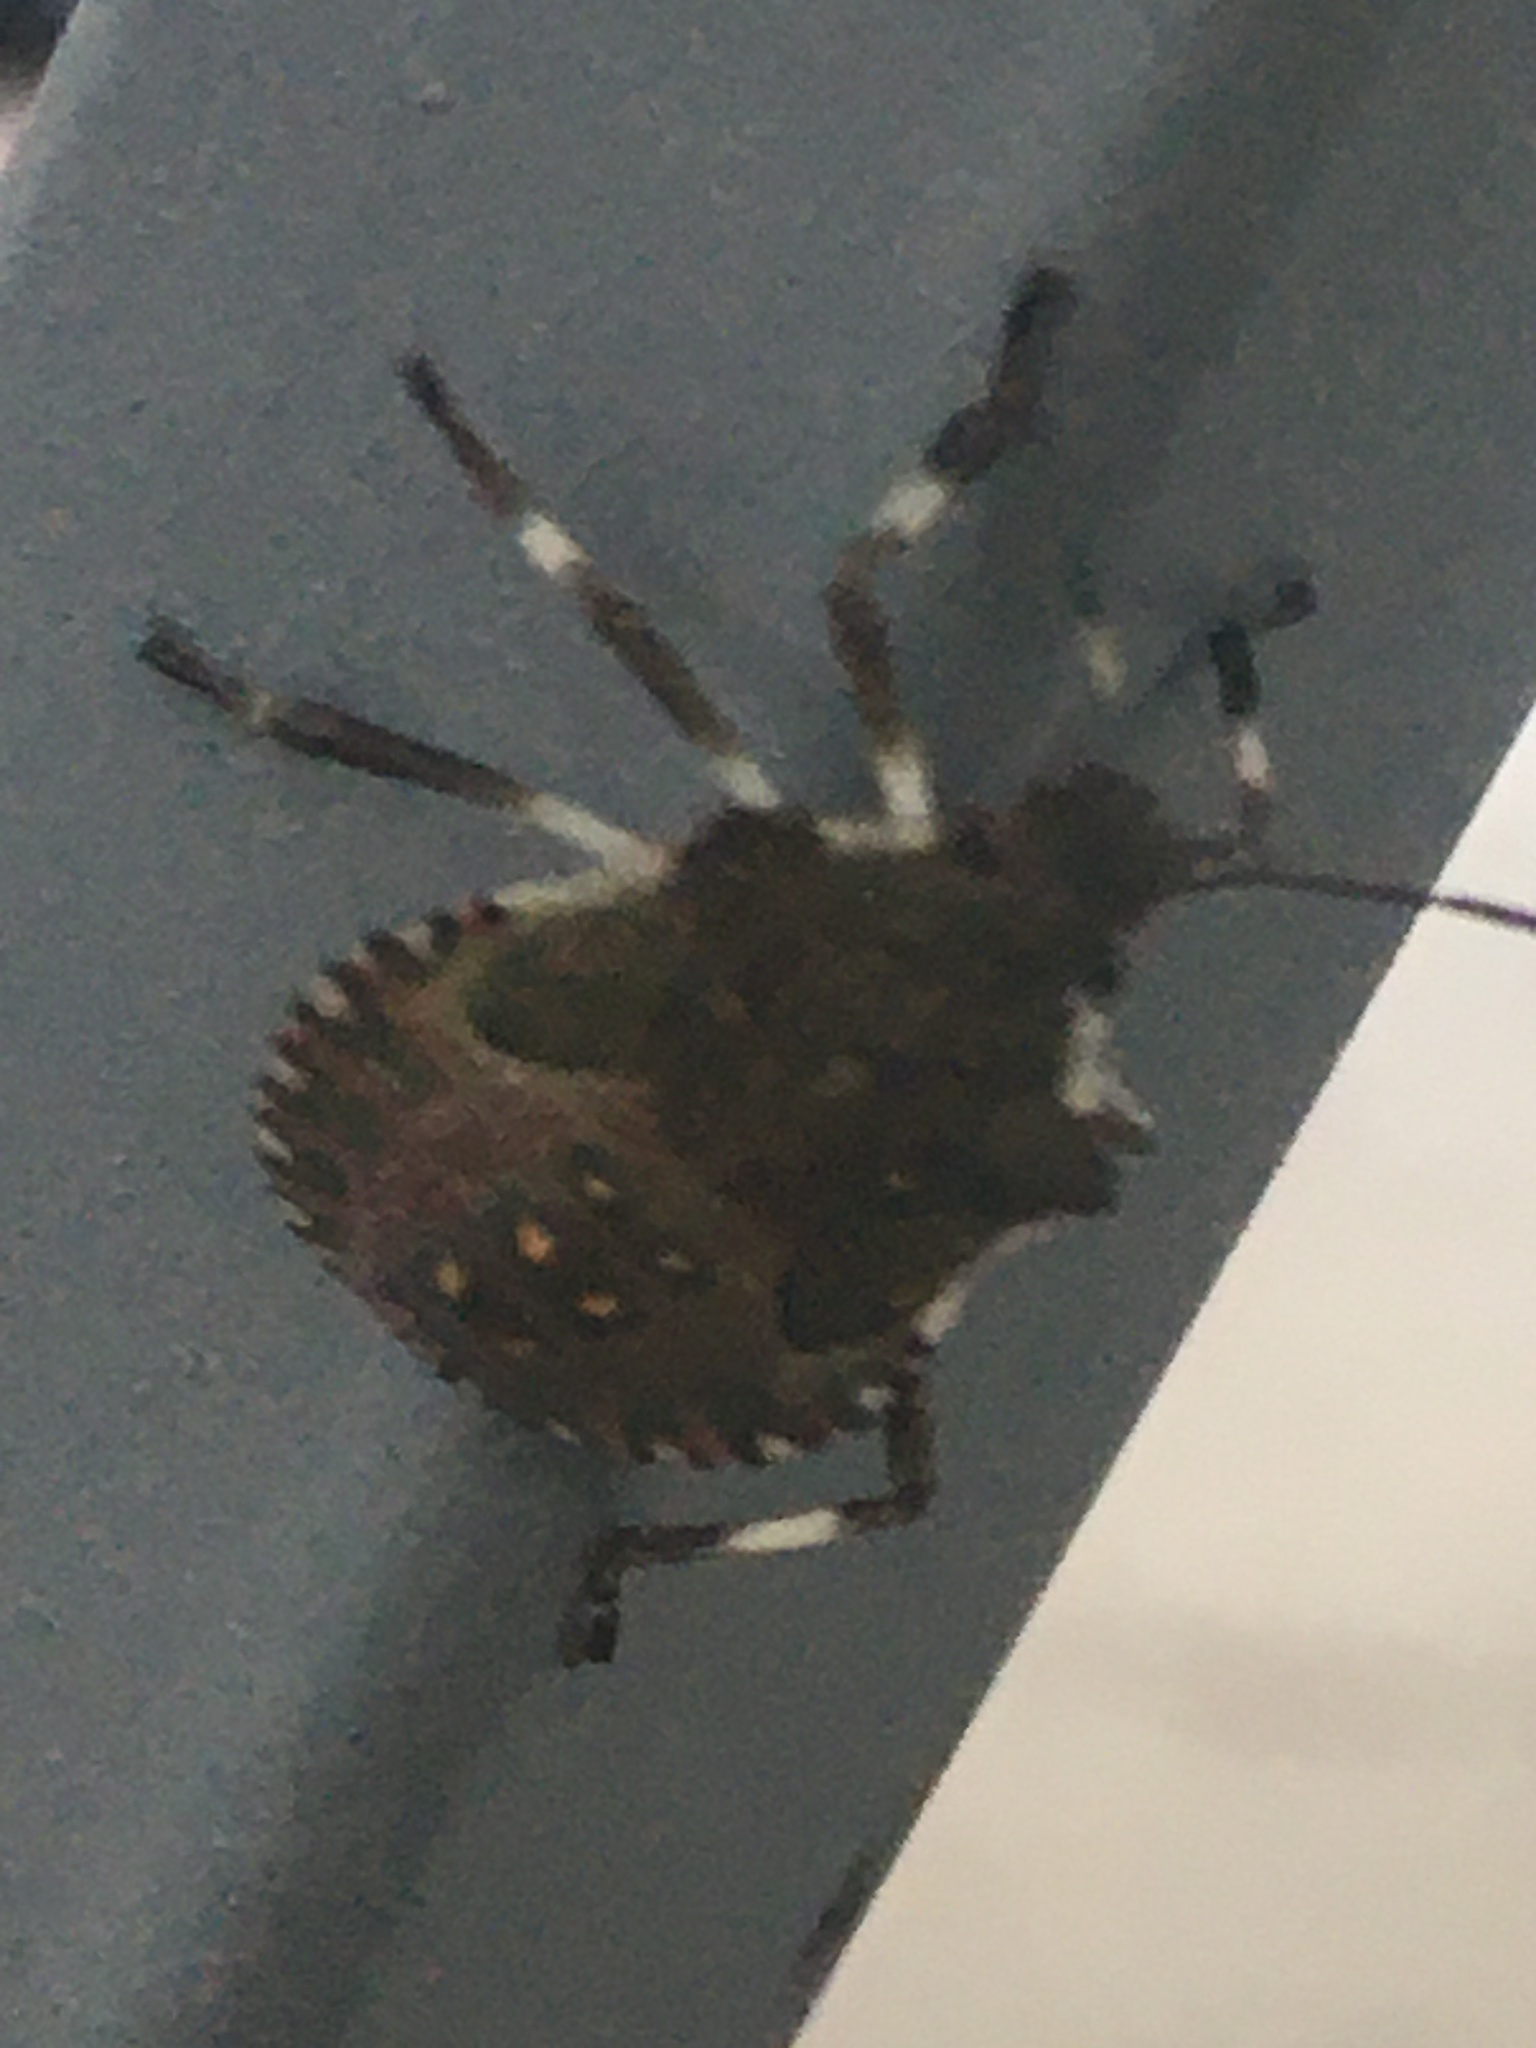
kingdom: Animalia
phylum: Arthropoda
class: Insecta
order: Hemiptera
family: Pentatomidae
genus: Halyomorpha
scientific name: Halyomorpha halys
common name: Brown marmorated stink bug
